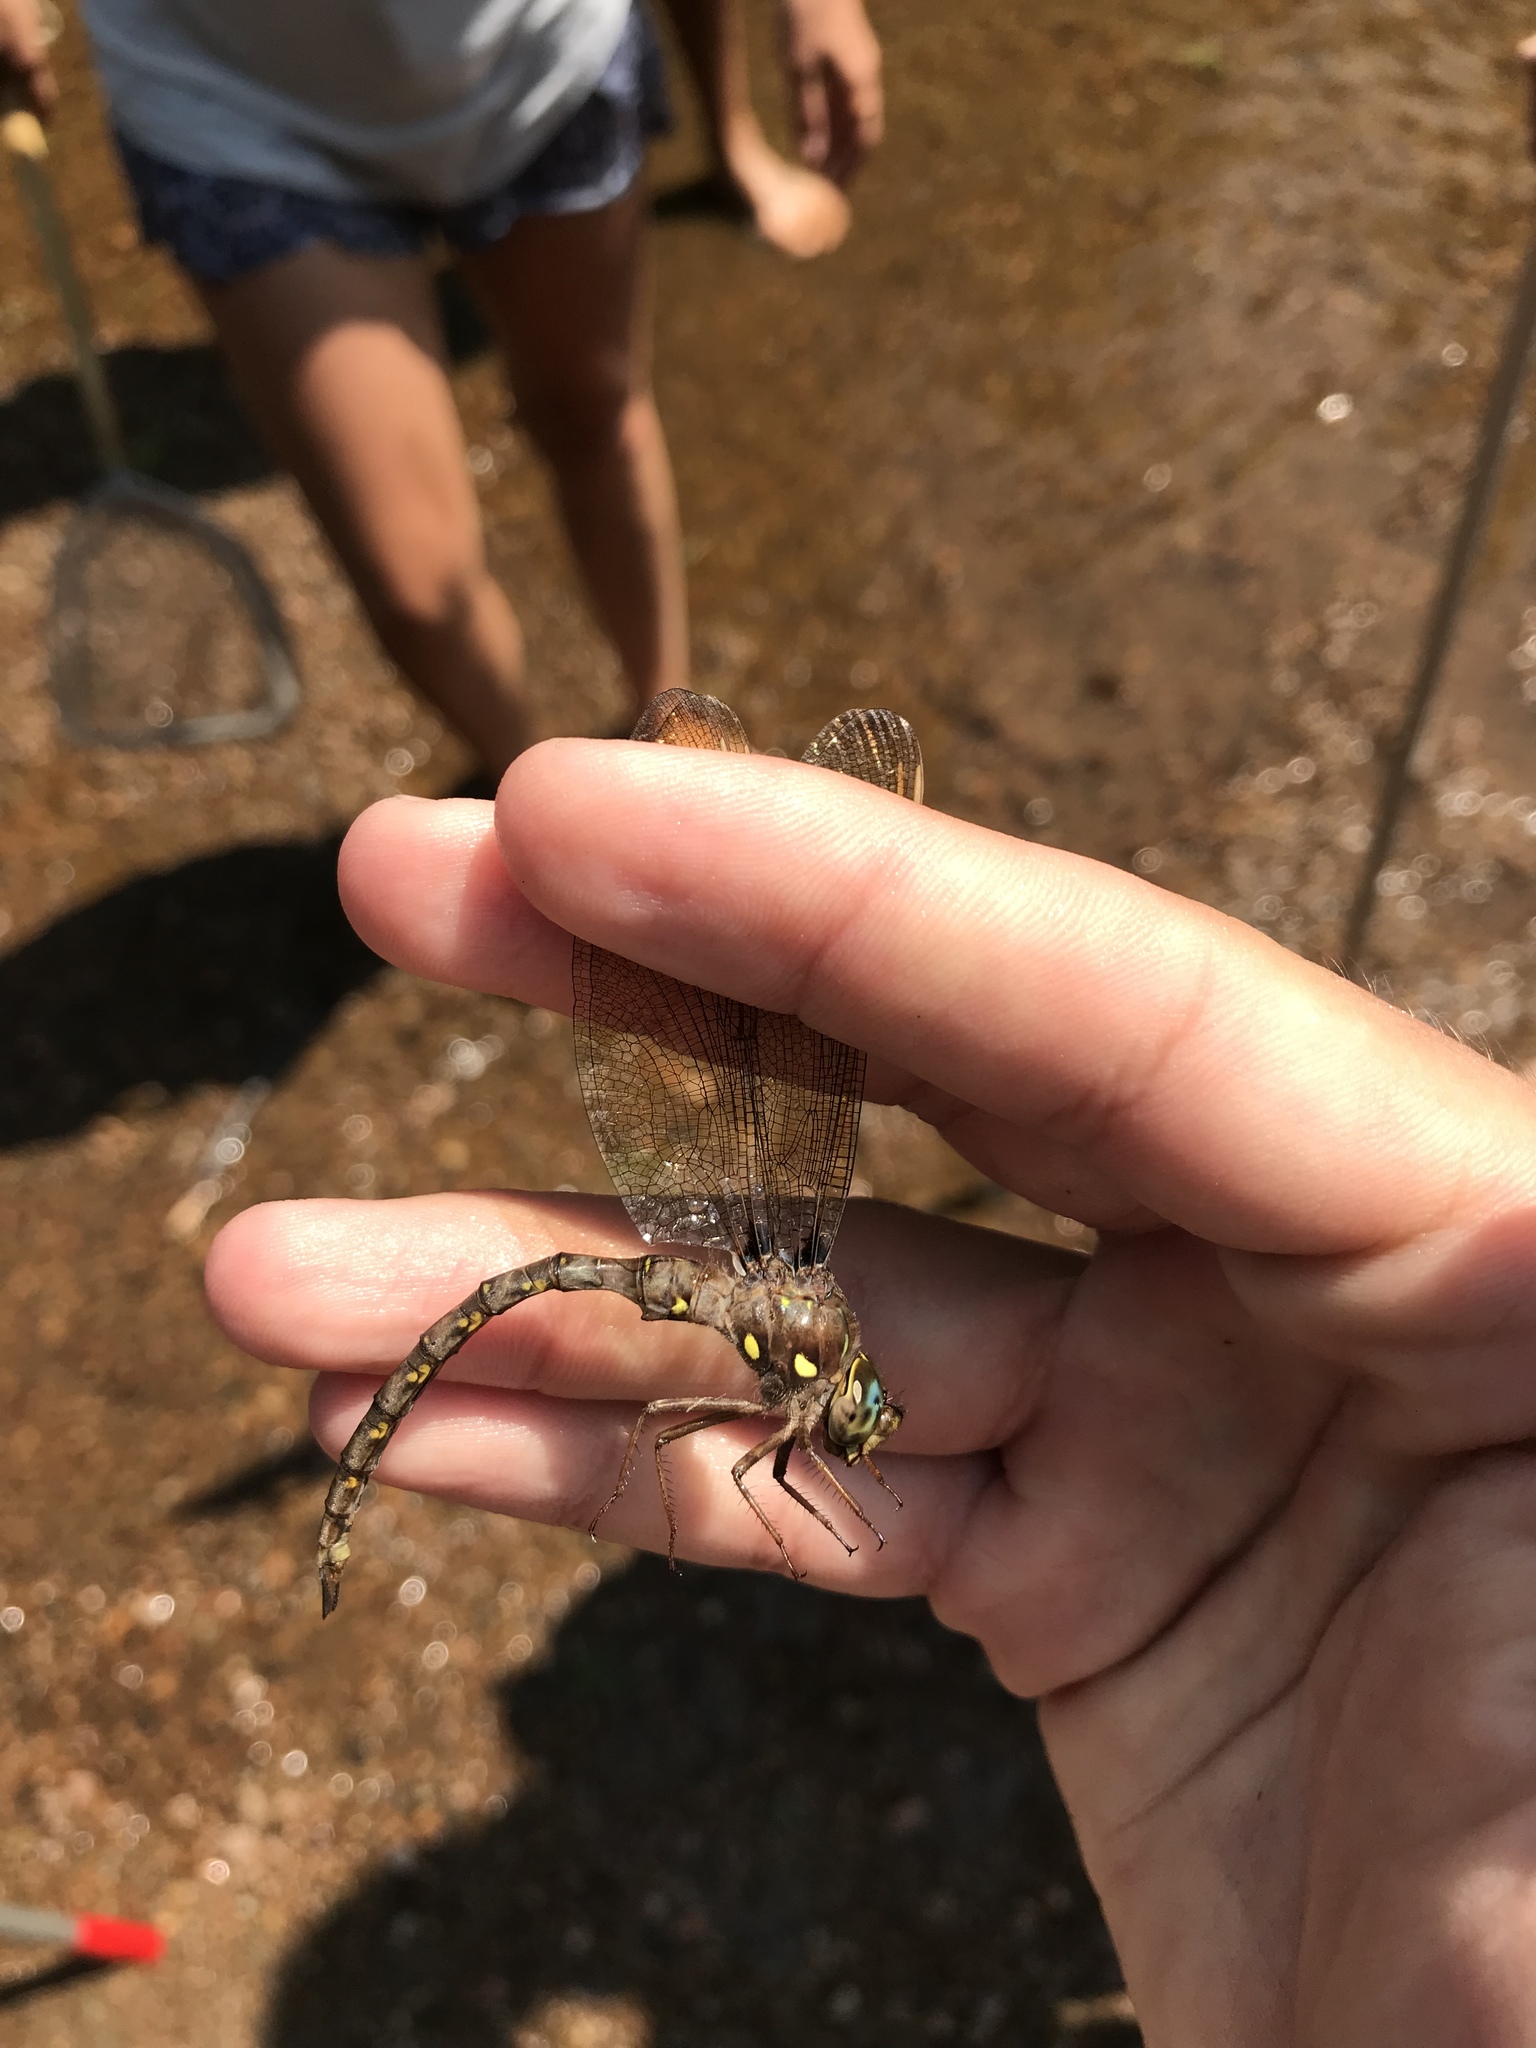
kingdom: Animalia
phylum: Arthropoda
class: Insecta
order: Odonata
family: Aeshnidae
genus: Boyeria
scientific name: Boyeria vinosa
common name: Fawn darner
